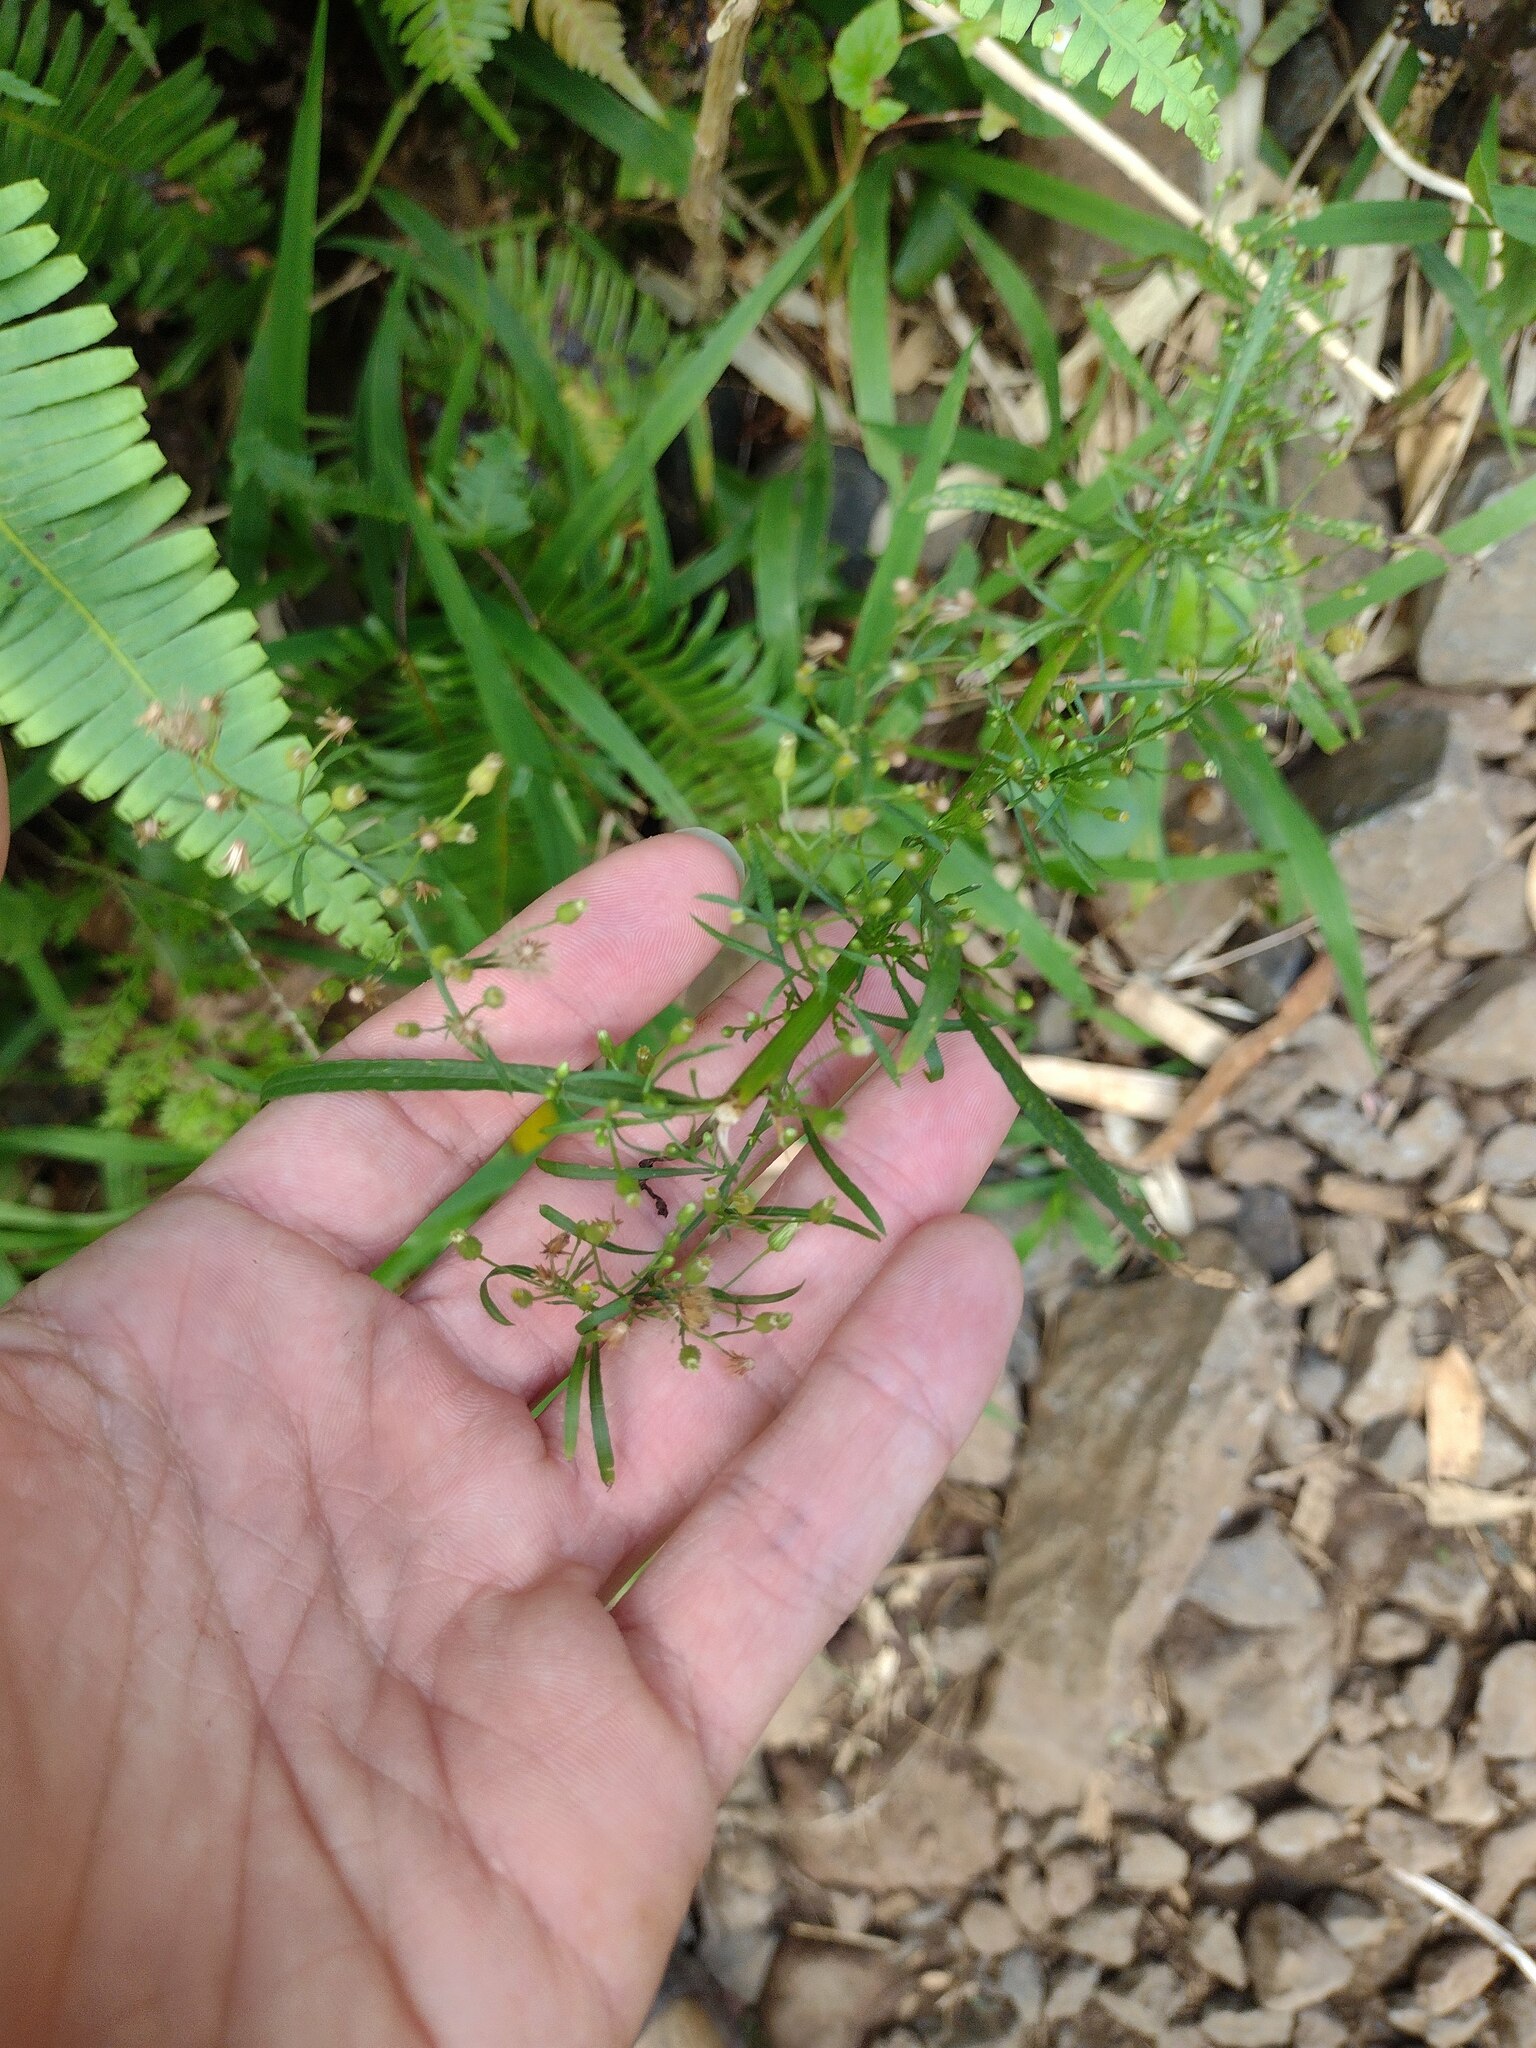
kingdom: Plantae
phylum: Tracheophyta
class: Magnoliopsida
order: Asterales
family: Asteraceae
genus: Erigeron
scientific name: Erigeron canadensis
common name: Canadian fleabane
